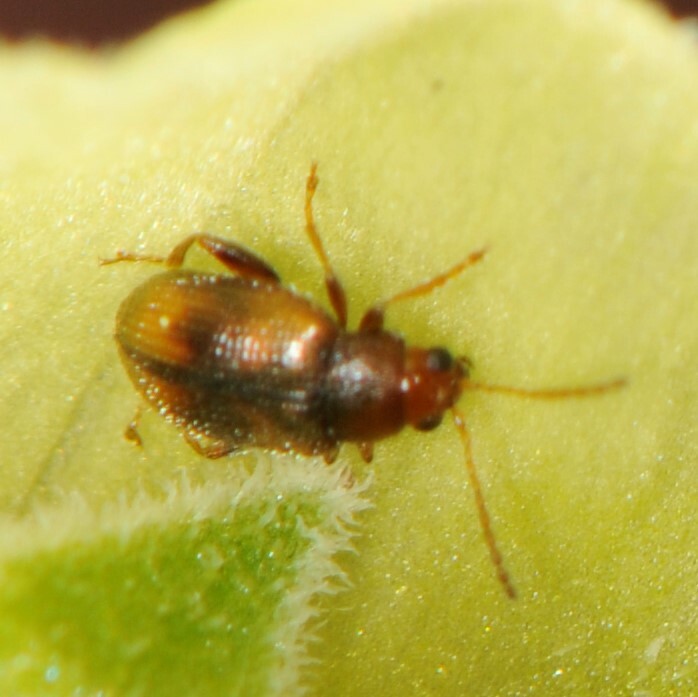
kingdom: Animalia
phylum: Arthropoda
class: Insecta
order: Coleoptera
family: Chrysomelidae
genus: Epitrix
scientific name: Epitrix hirtipennis
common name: Tobacco flea beetle
